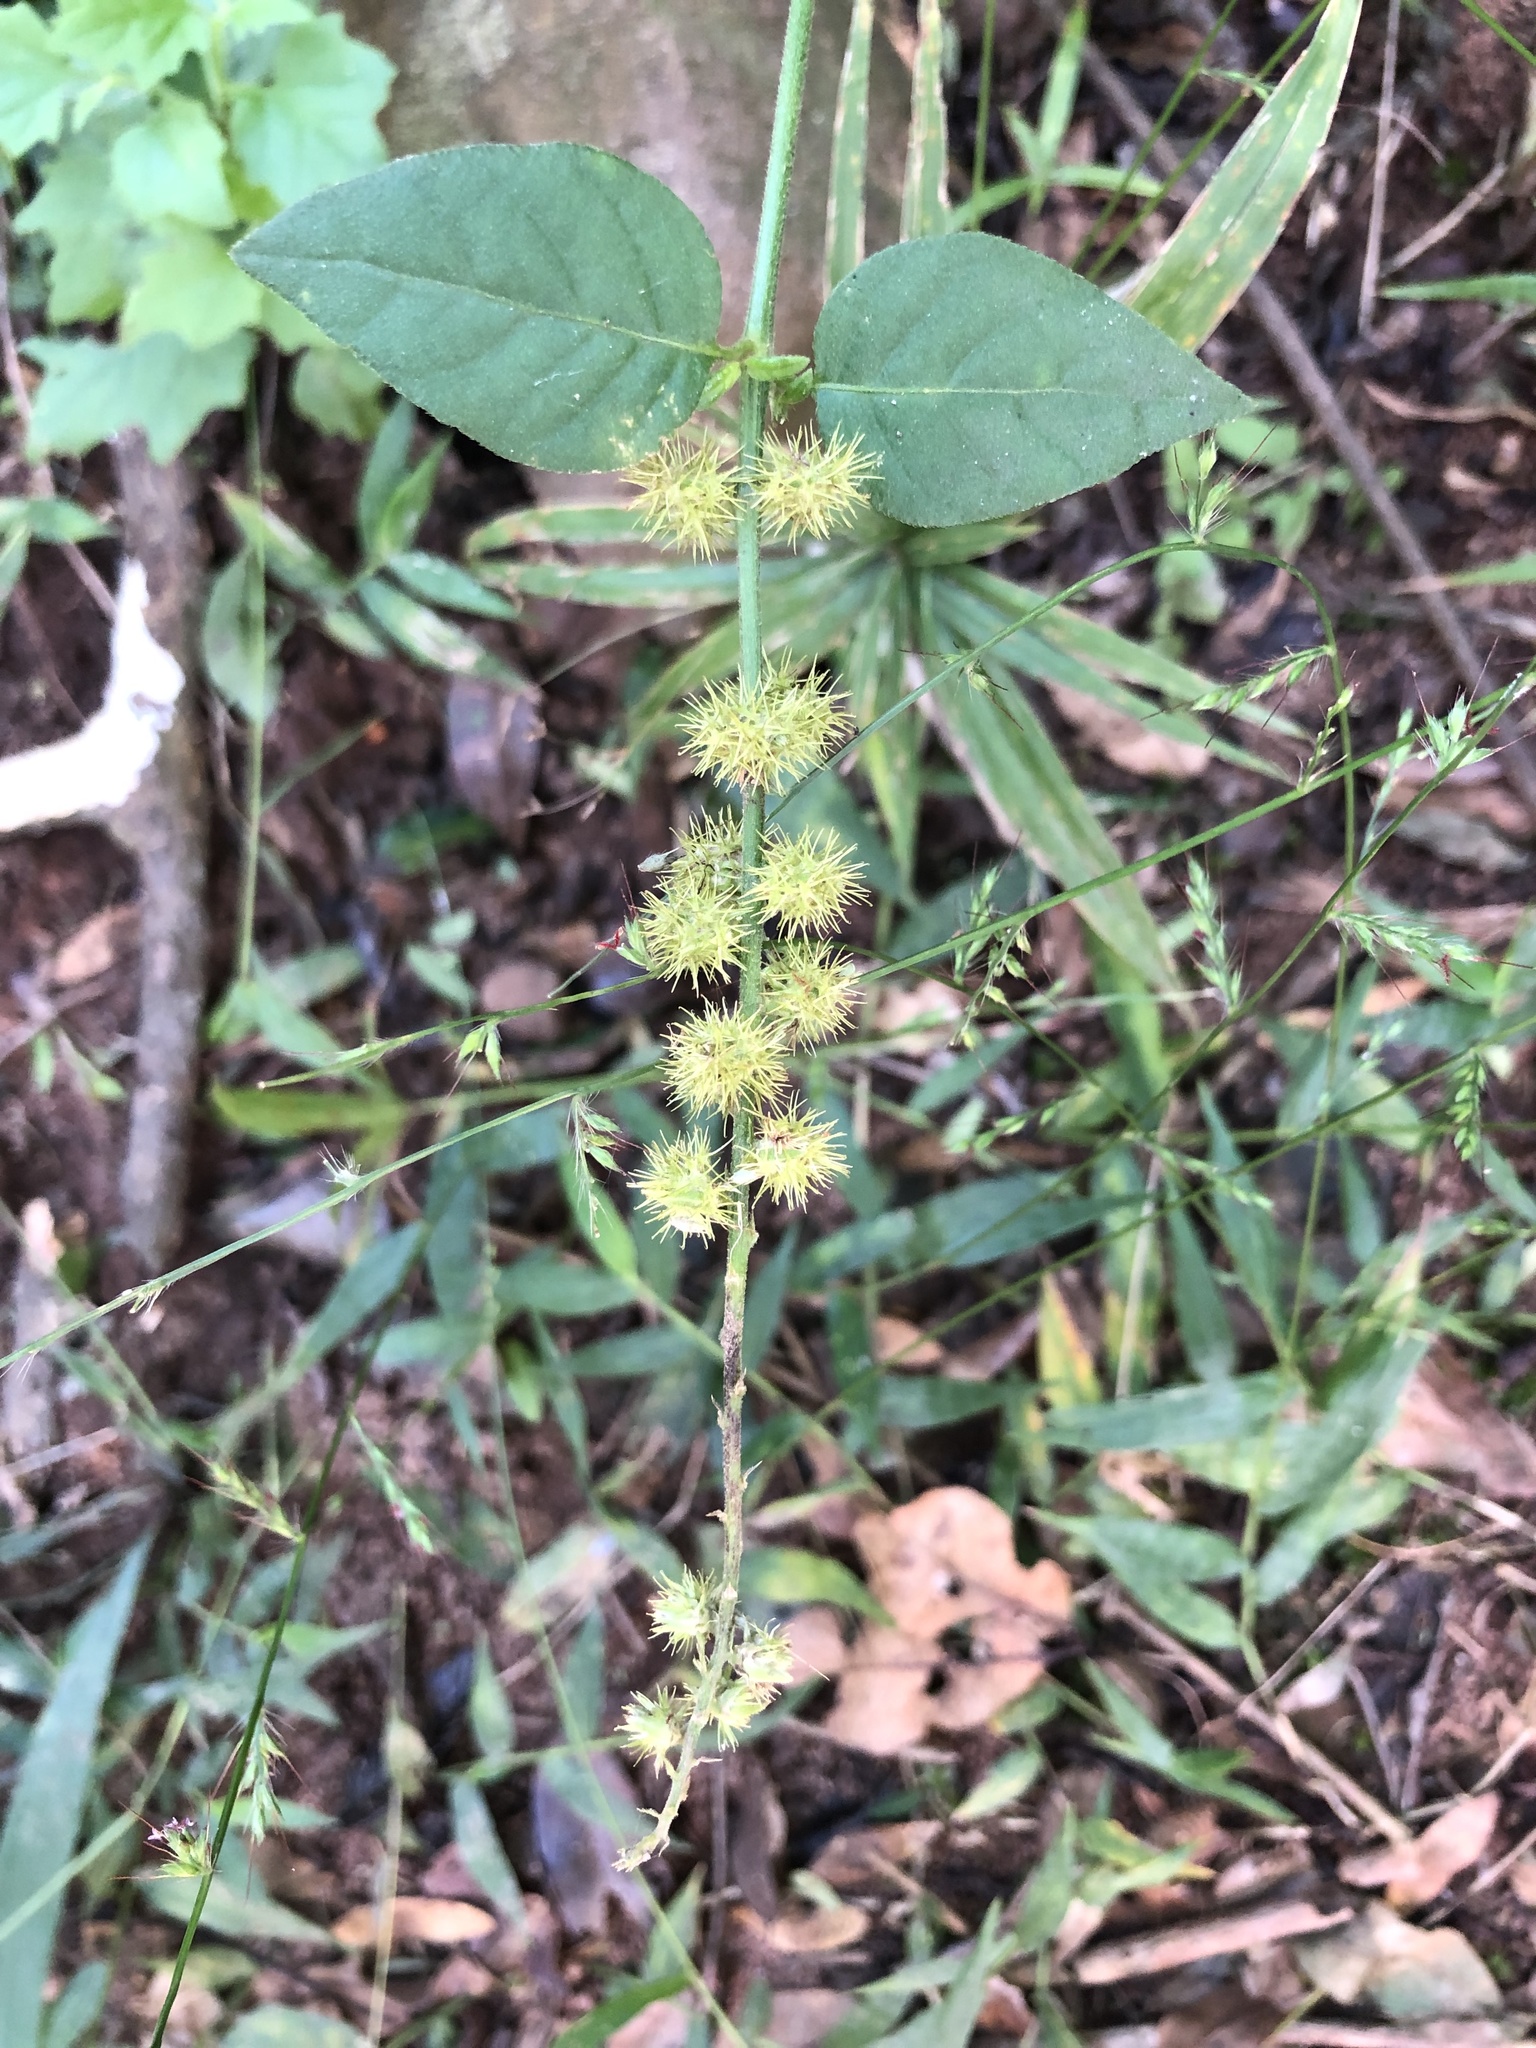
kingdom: Plantae
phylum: Tracheophyta
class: Magnoliopsida
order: Caryophyllales
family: Amaranthaceae
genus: Pupalia
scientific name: Pupalia lappacea
